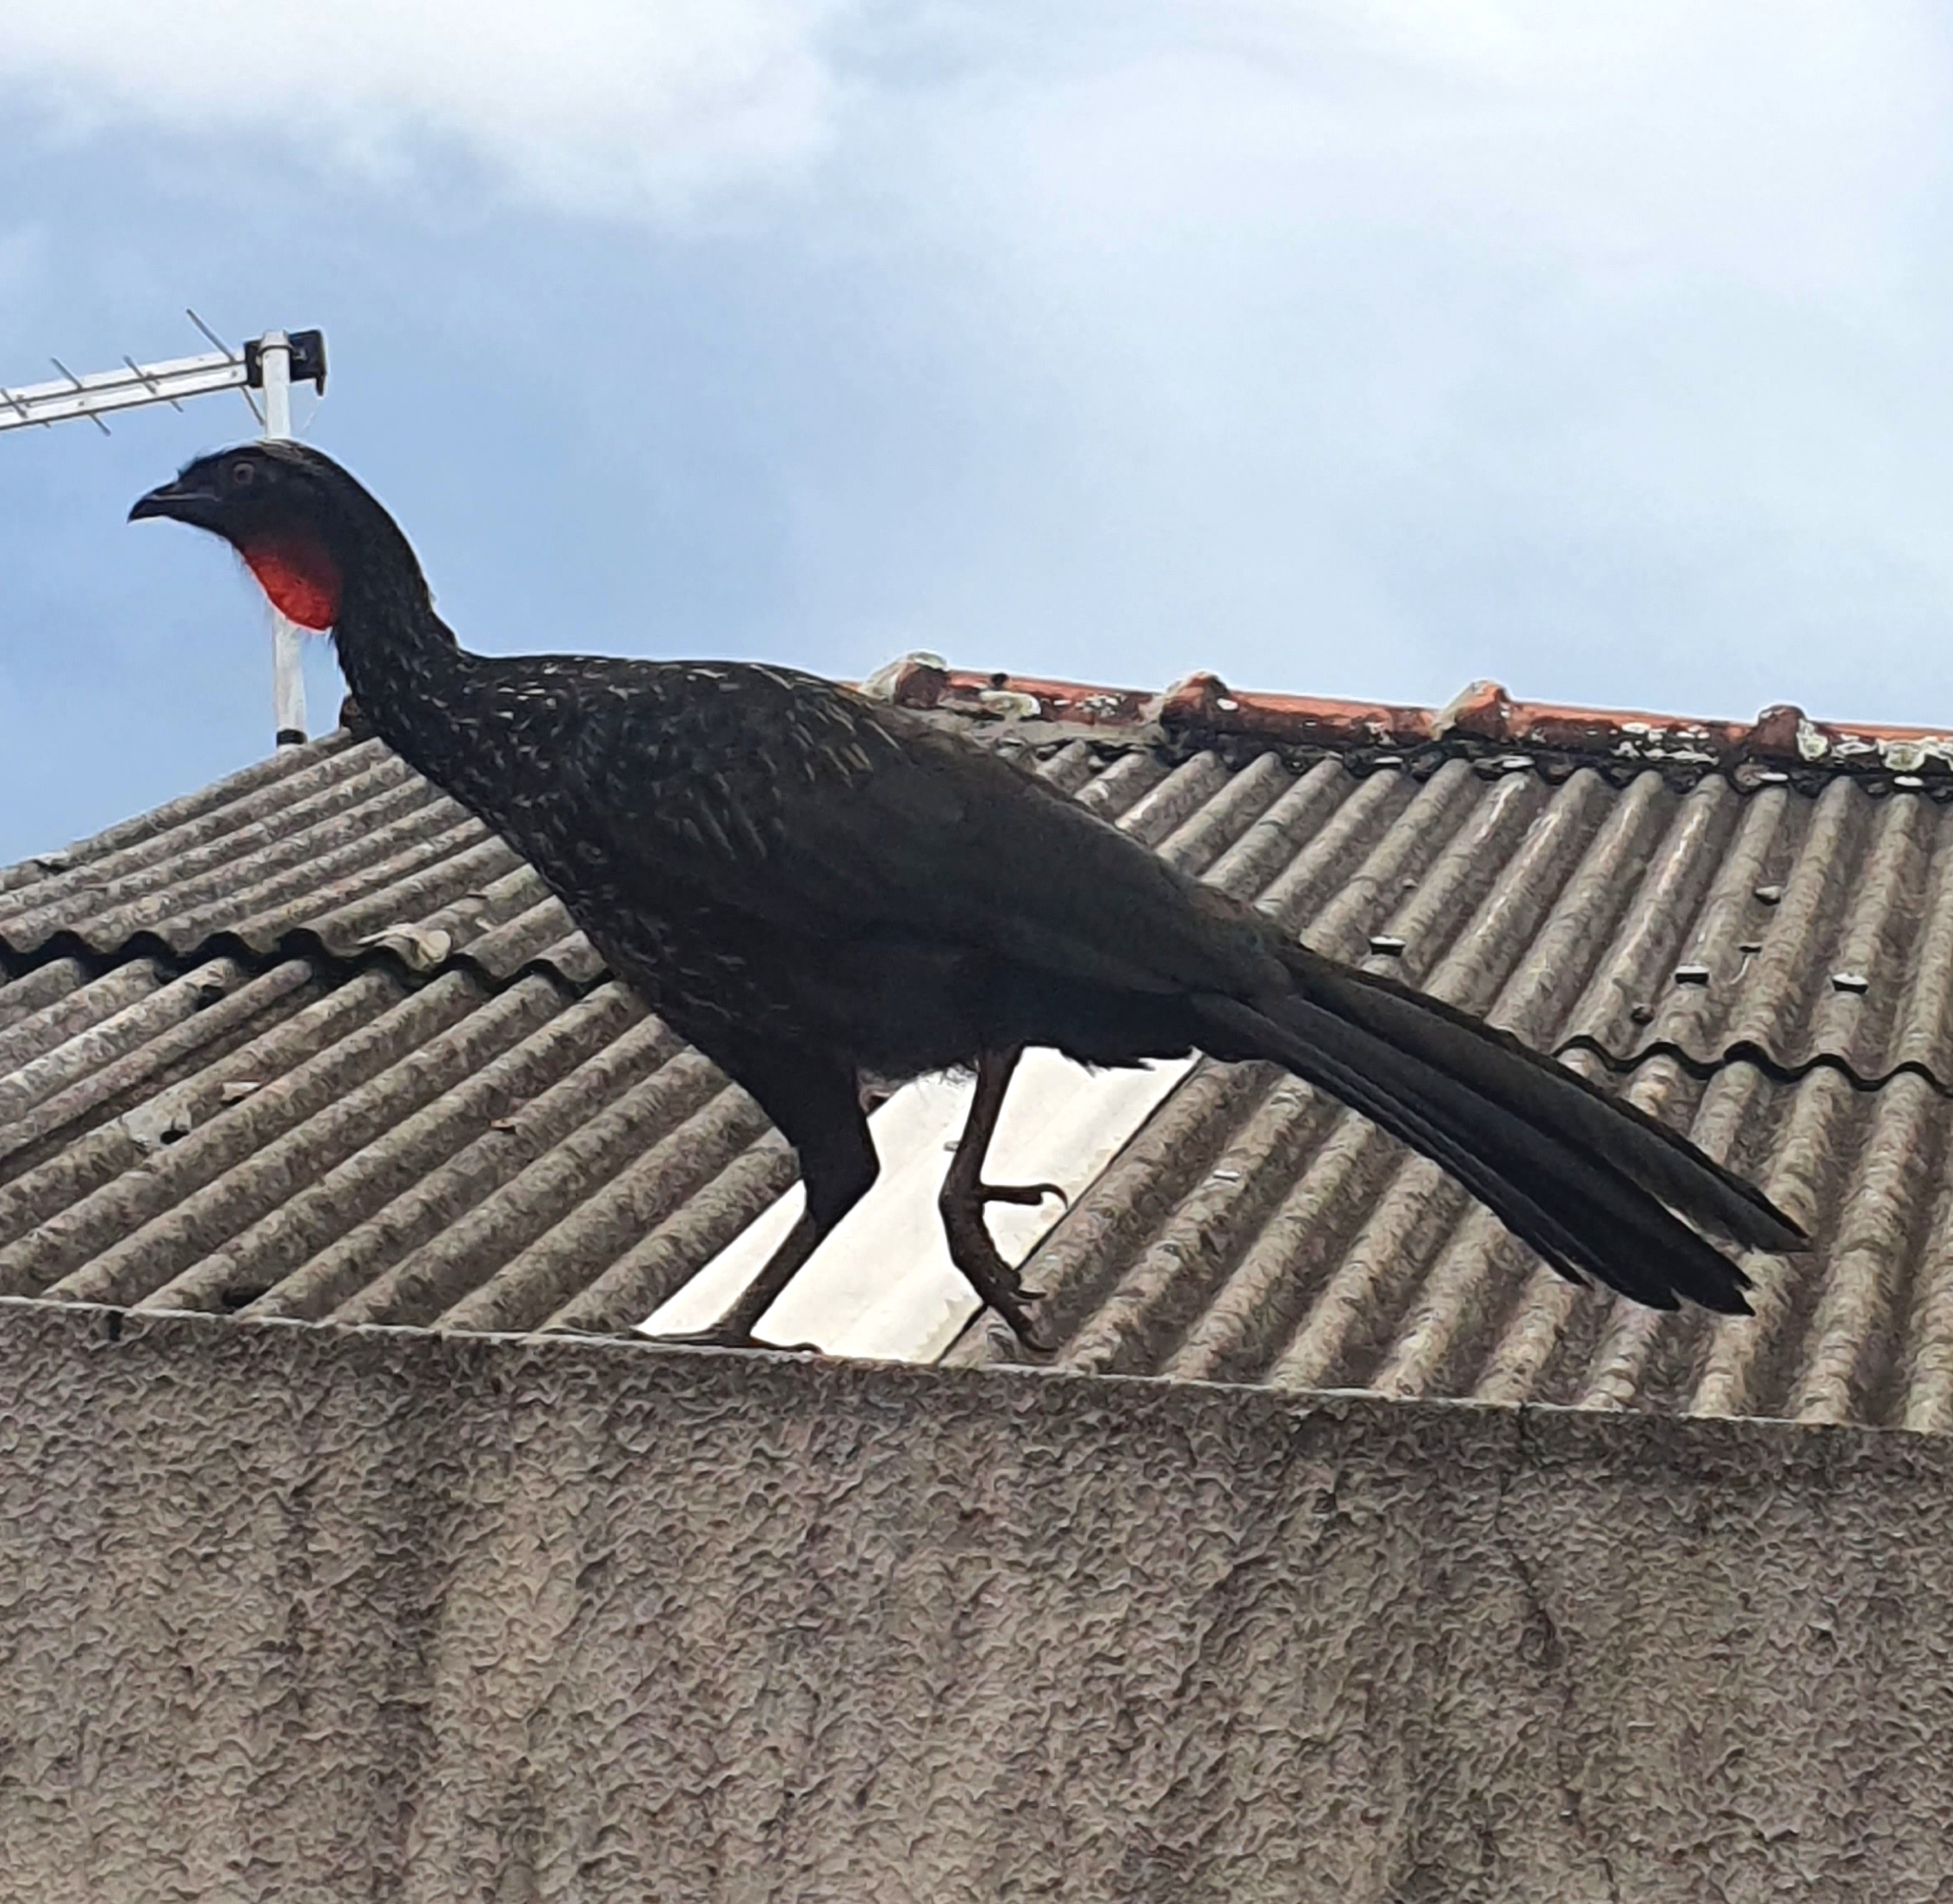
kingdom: Animalia
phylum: Chordata
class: Aves
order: Galliformes
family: Cracidae
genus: Penelope
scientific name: Penelope obscura
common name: Dusky-legged guan
